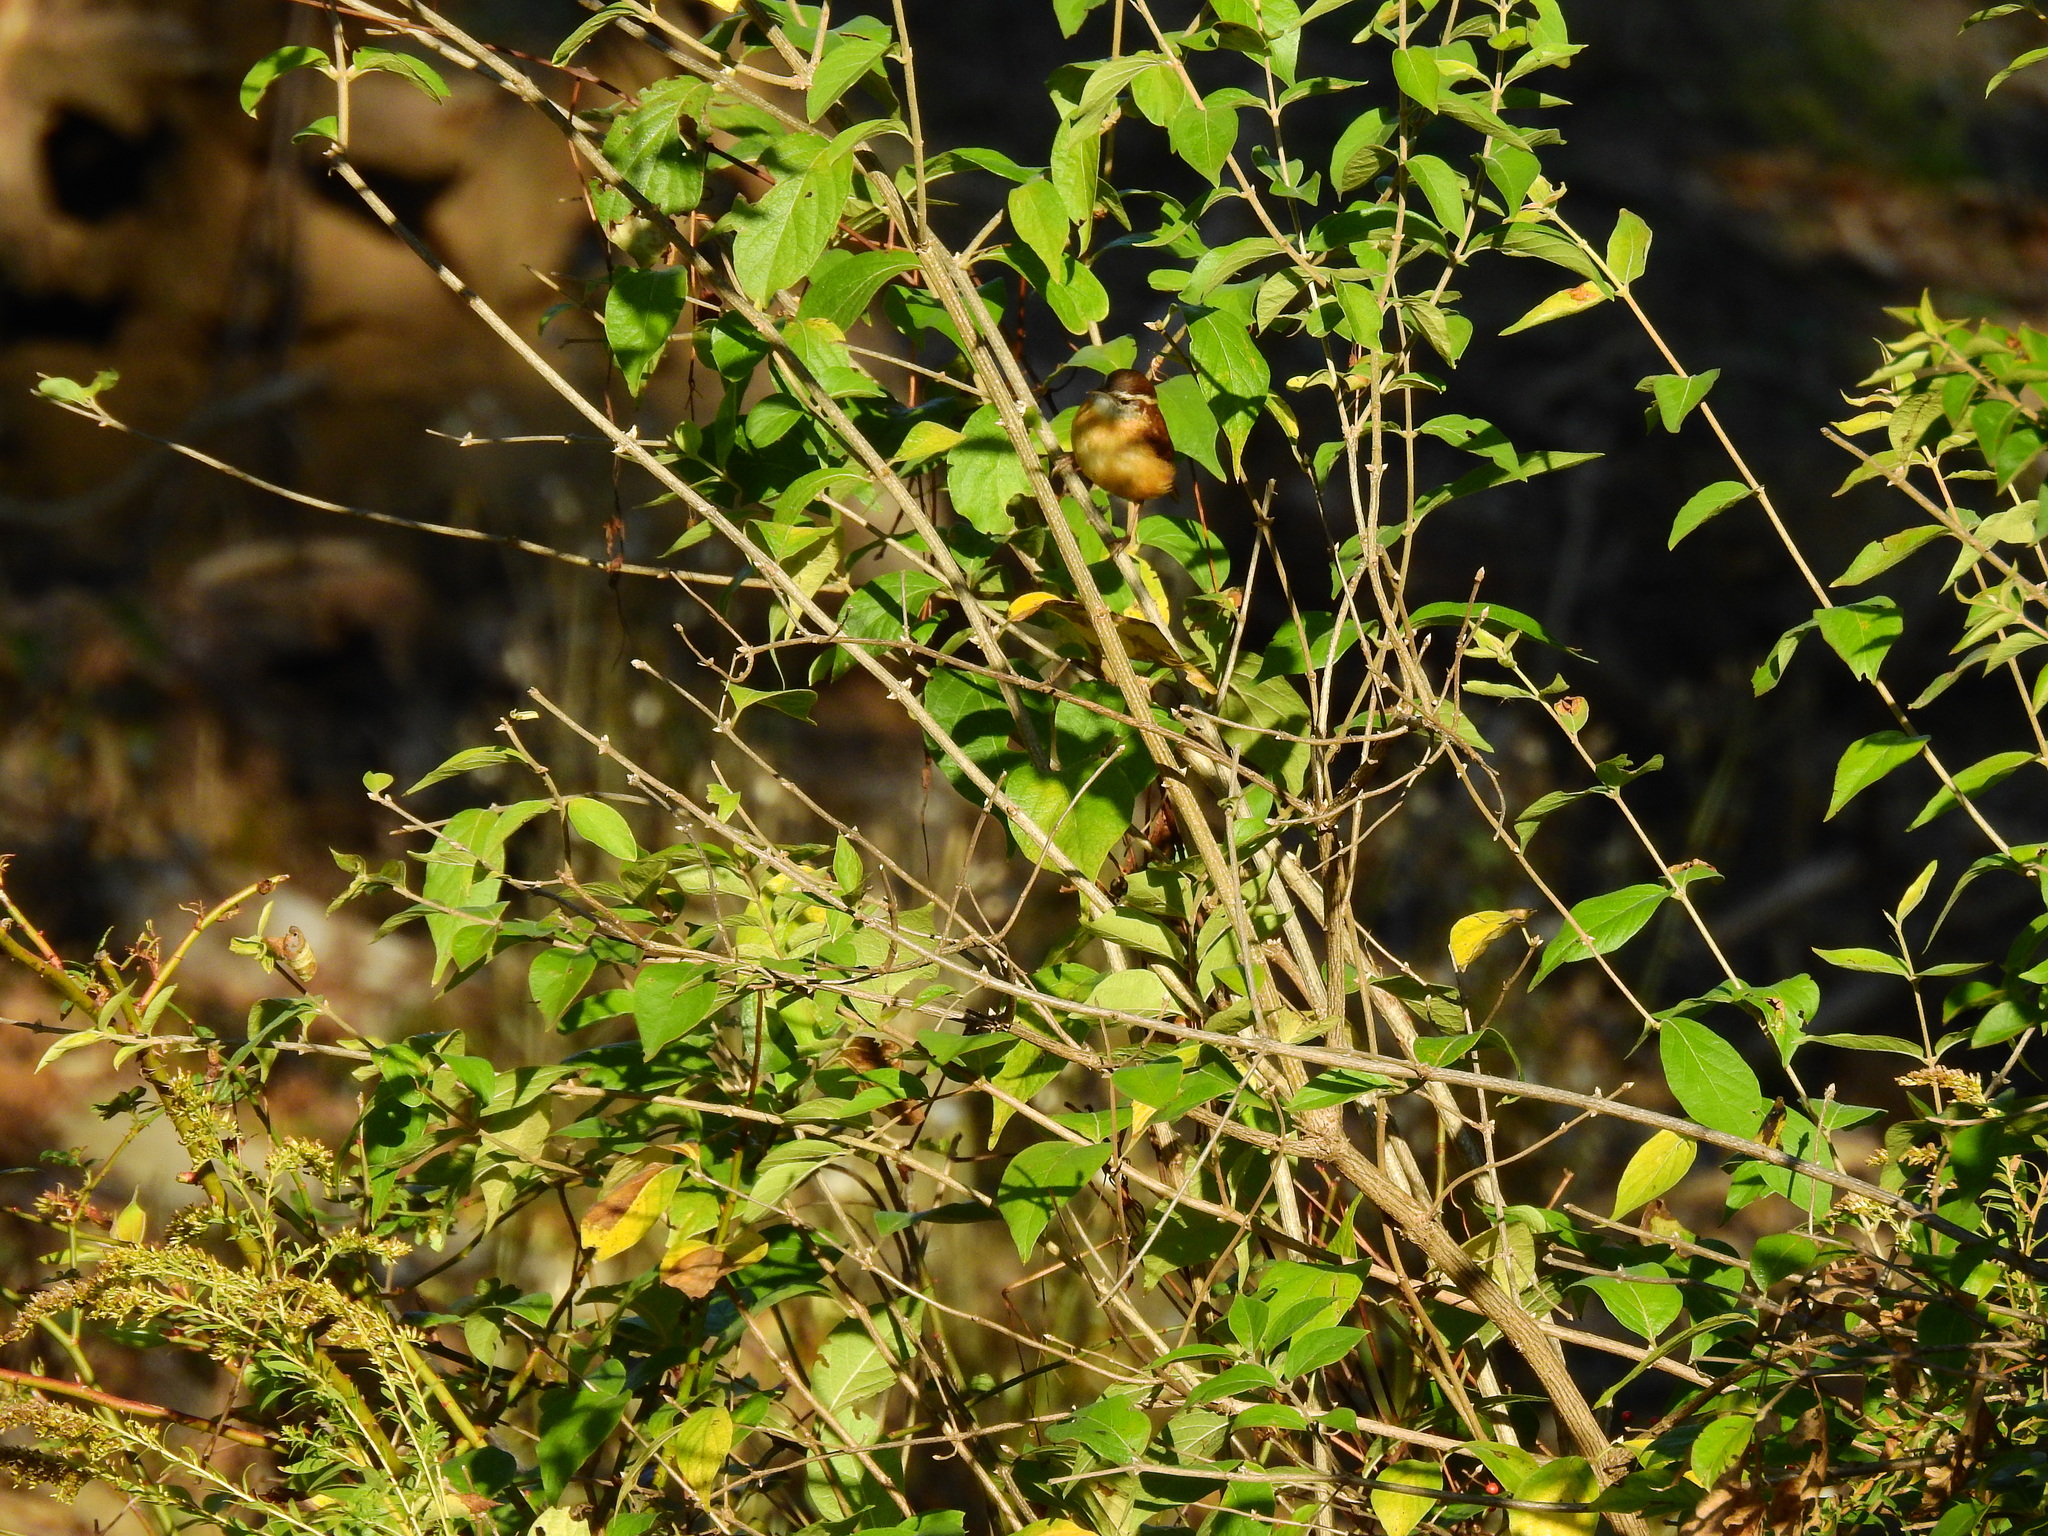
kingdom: Animalia
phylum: Chordata
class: Aves
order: Passeriformes
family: Troglodytidae
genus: Thryothorus
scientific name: Thryothorus ludovicianus
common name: Carolina wren
